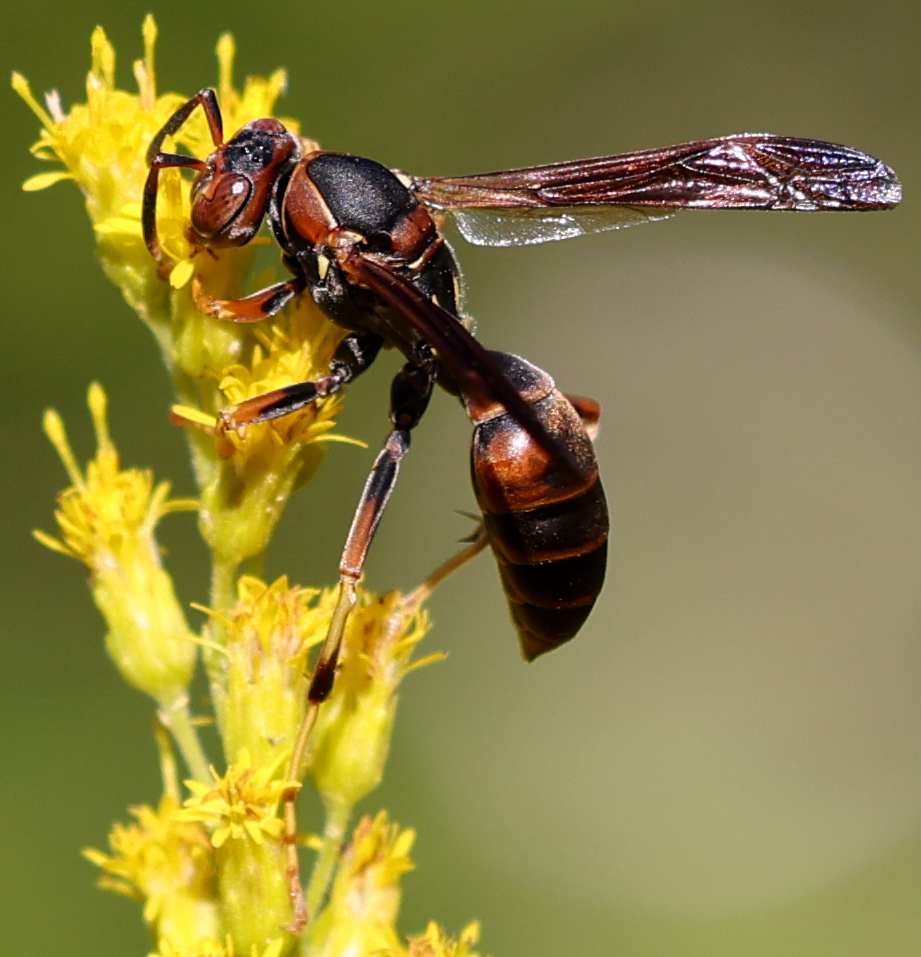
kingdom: Animalia
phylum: Arthropoda
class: Insecta
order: Hymenoptera
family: Eumenidae
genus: Polistes
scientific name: Polistes fuscatus
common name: Dark paper wasp
